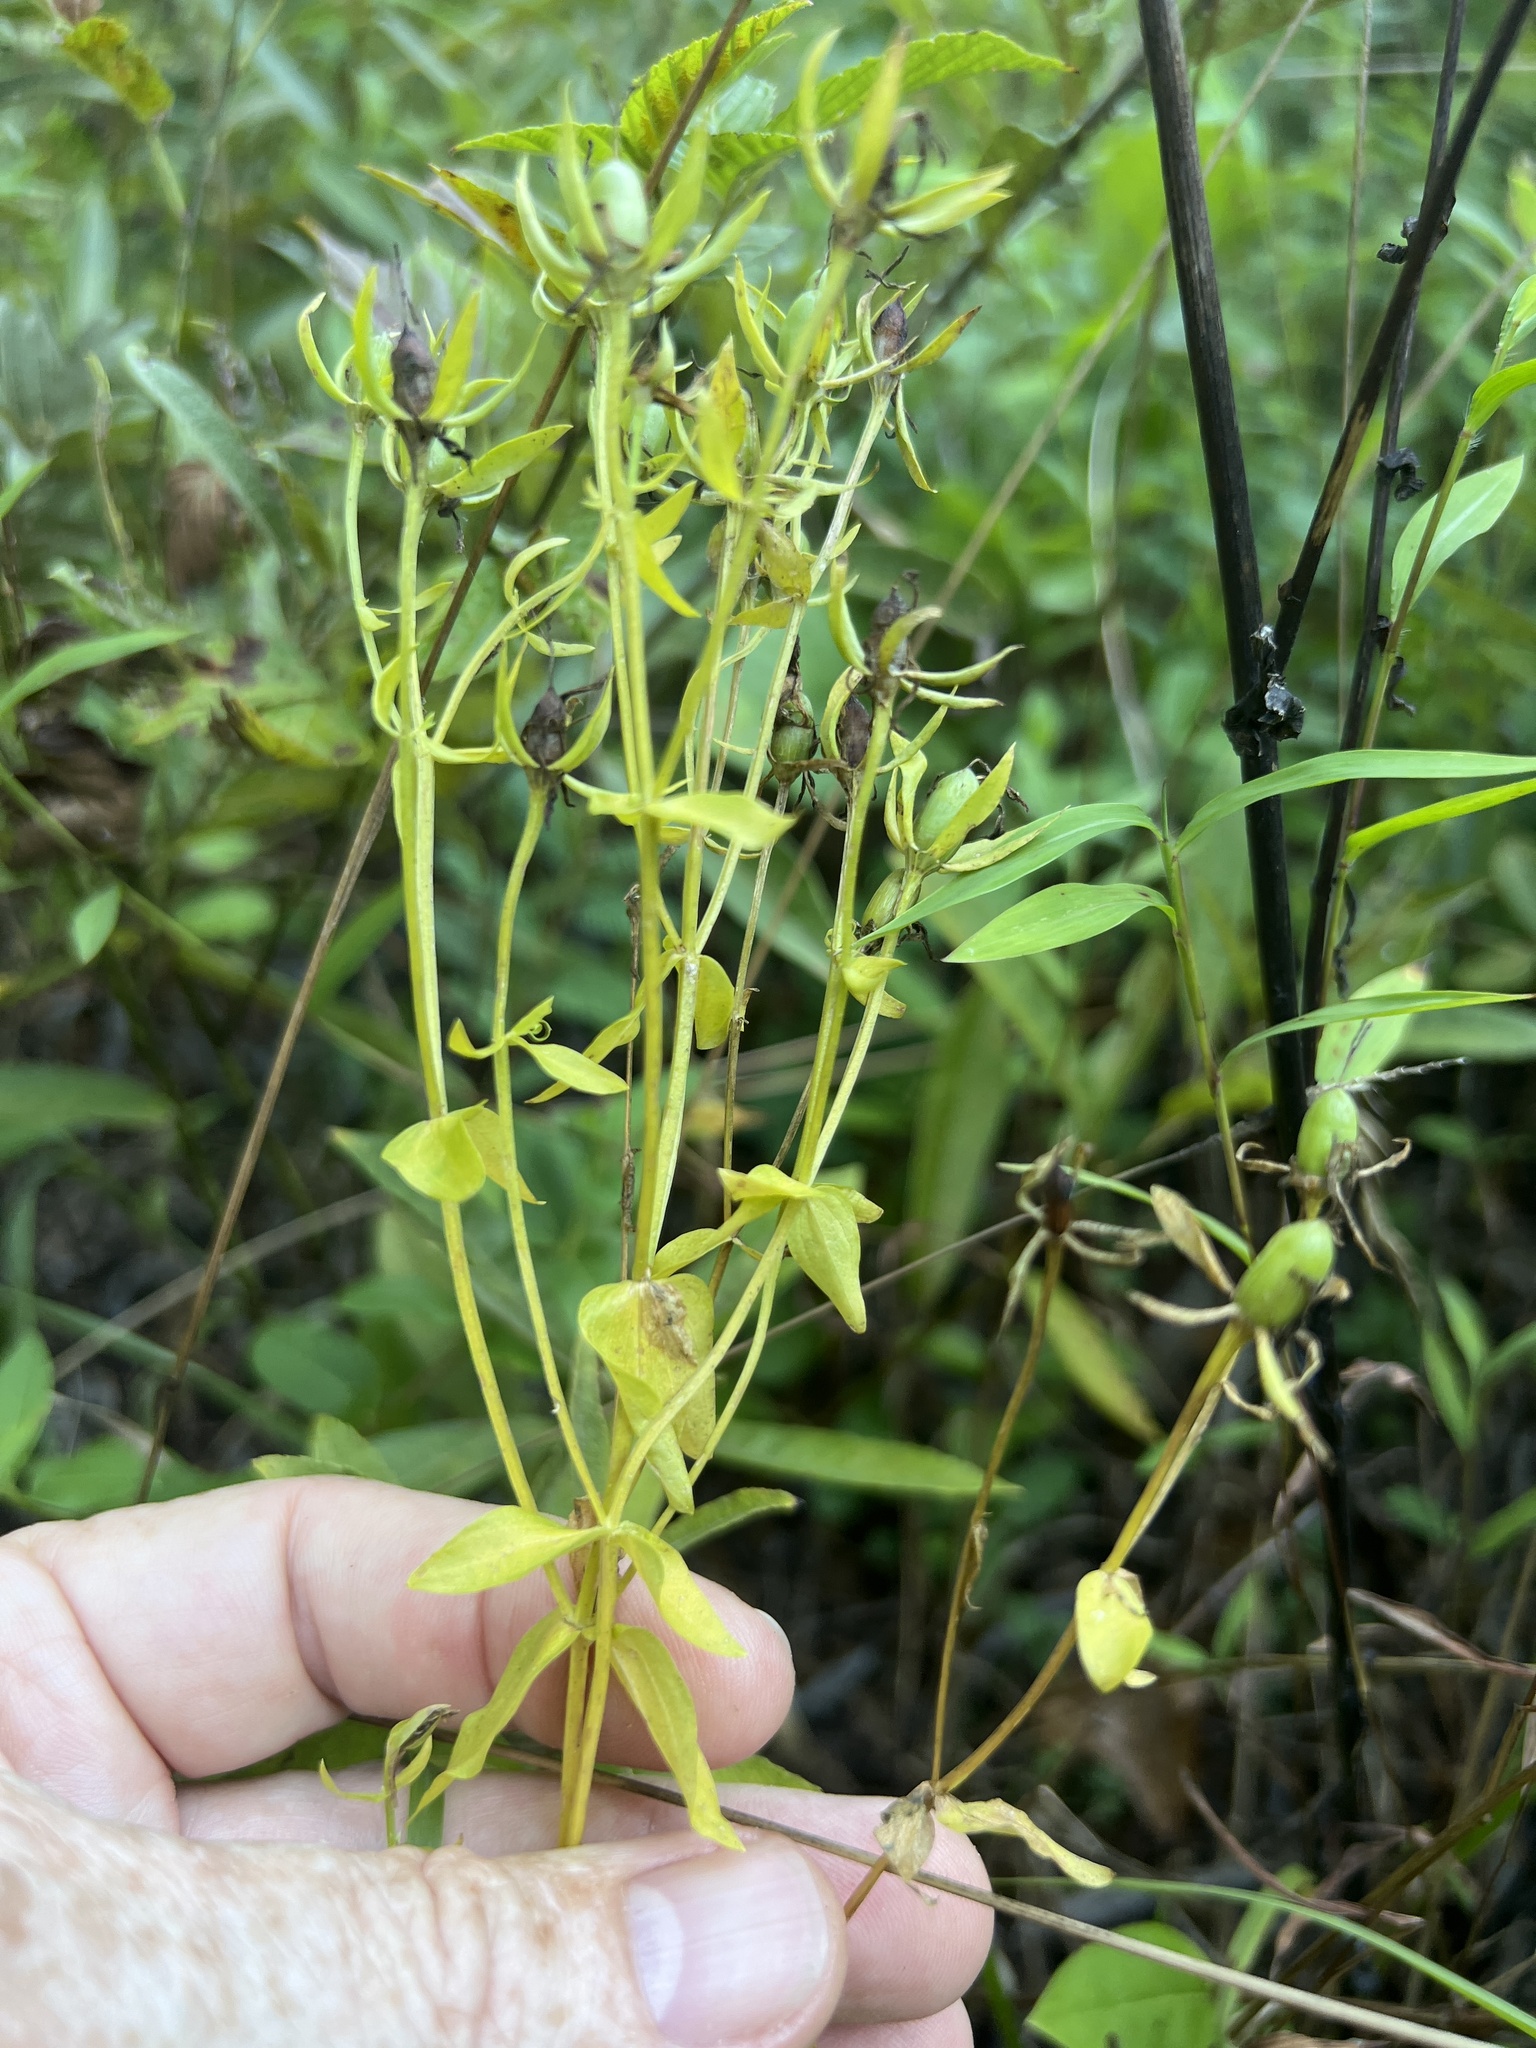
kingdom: Plantae
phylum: Tracheophyta
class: Magnoliopsida
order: Gentianales
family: Gentianaceae
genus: Sabatia
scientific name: Sabatia angularis
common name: Rose-pink
